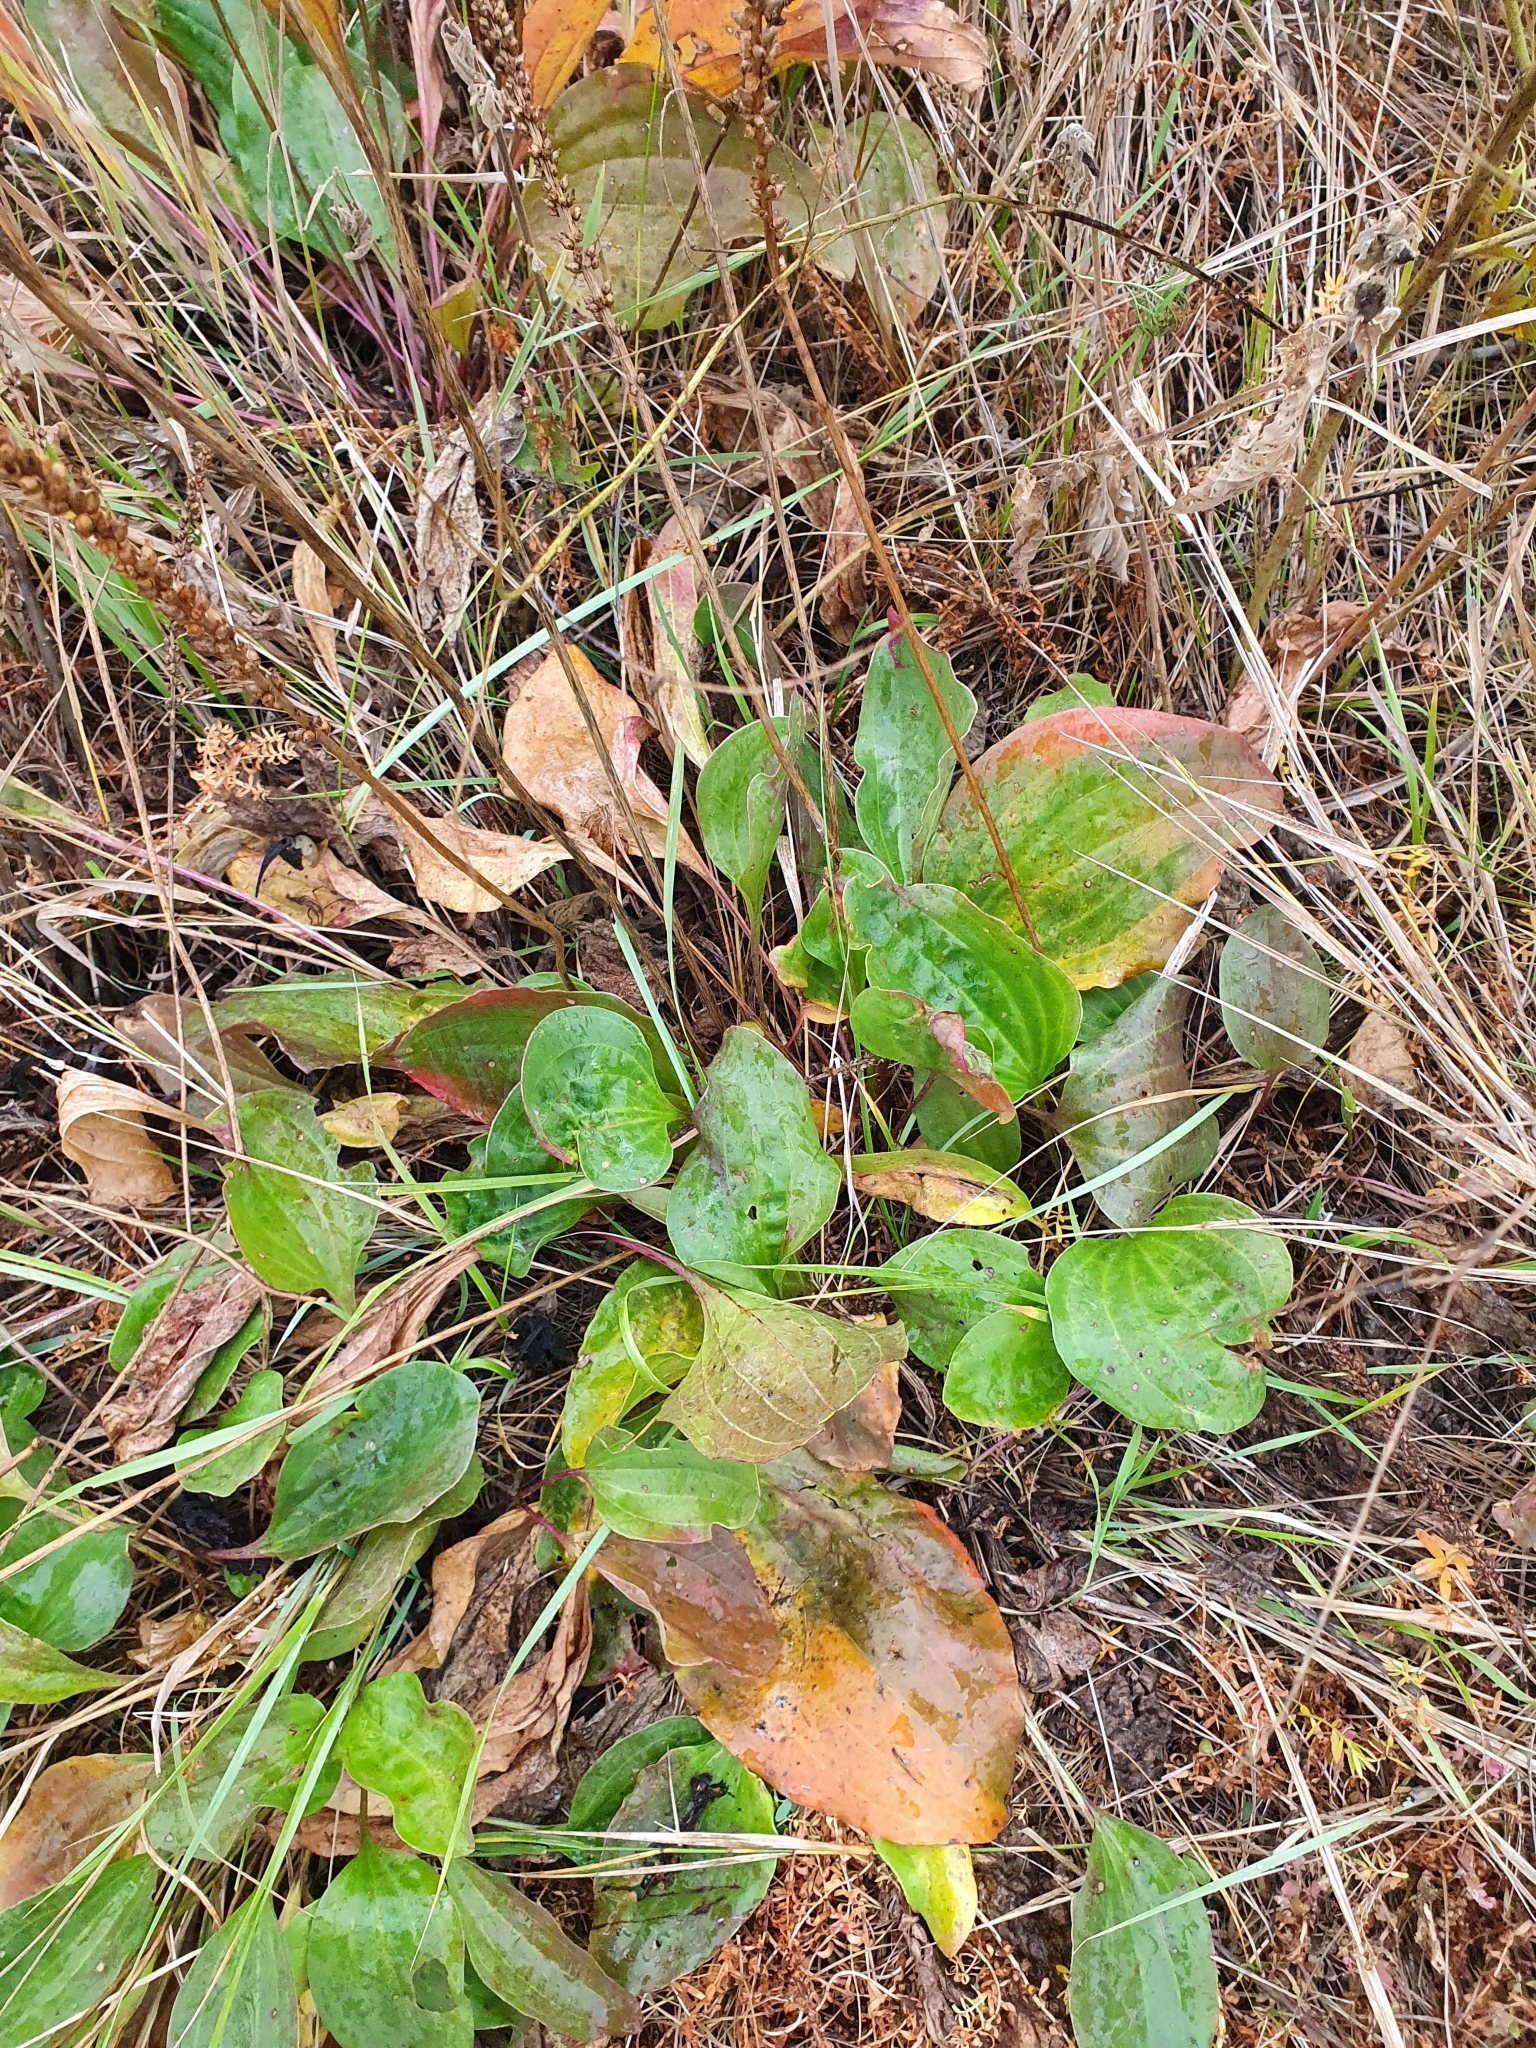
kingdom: Plantae
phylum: Tracheophyta
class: Magnoliopsida
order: Lamiales
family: Plantaginaceae
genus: Plantago
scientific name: Plantago cornuti
